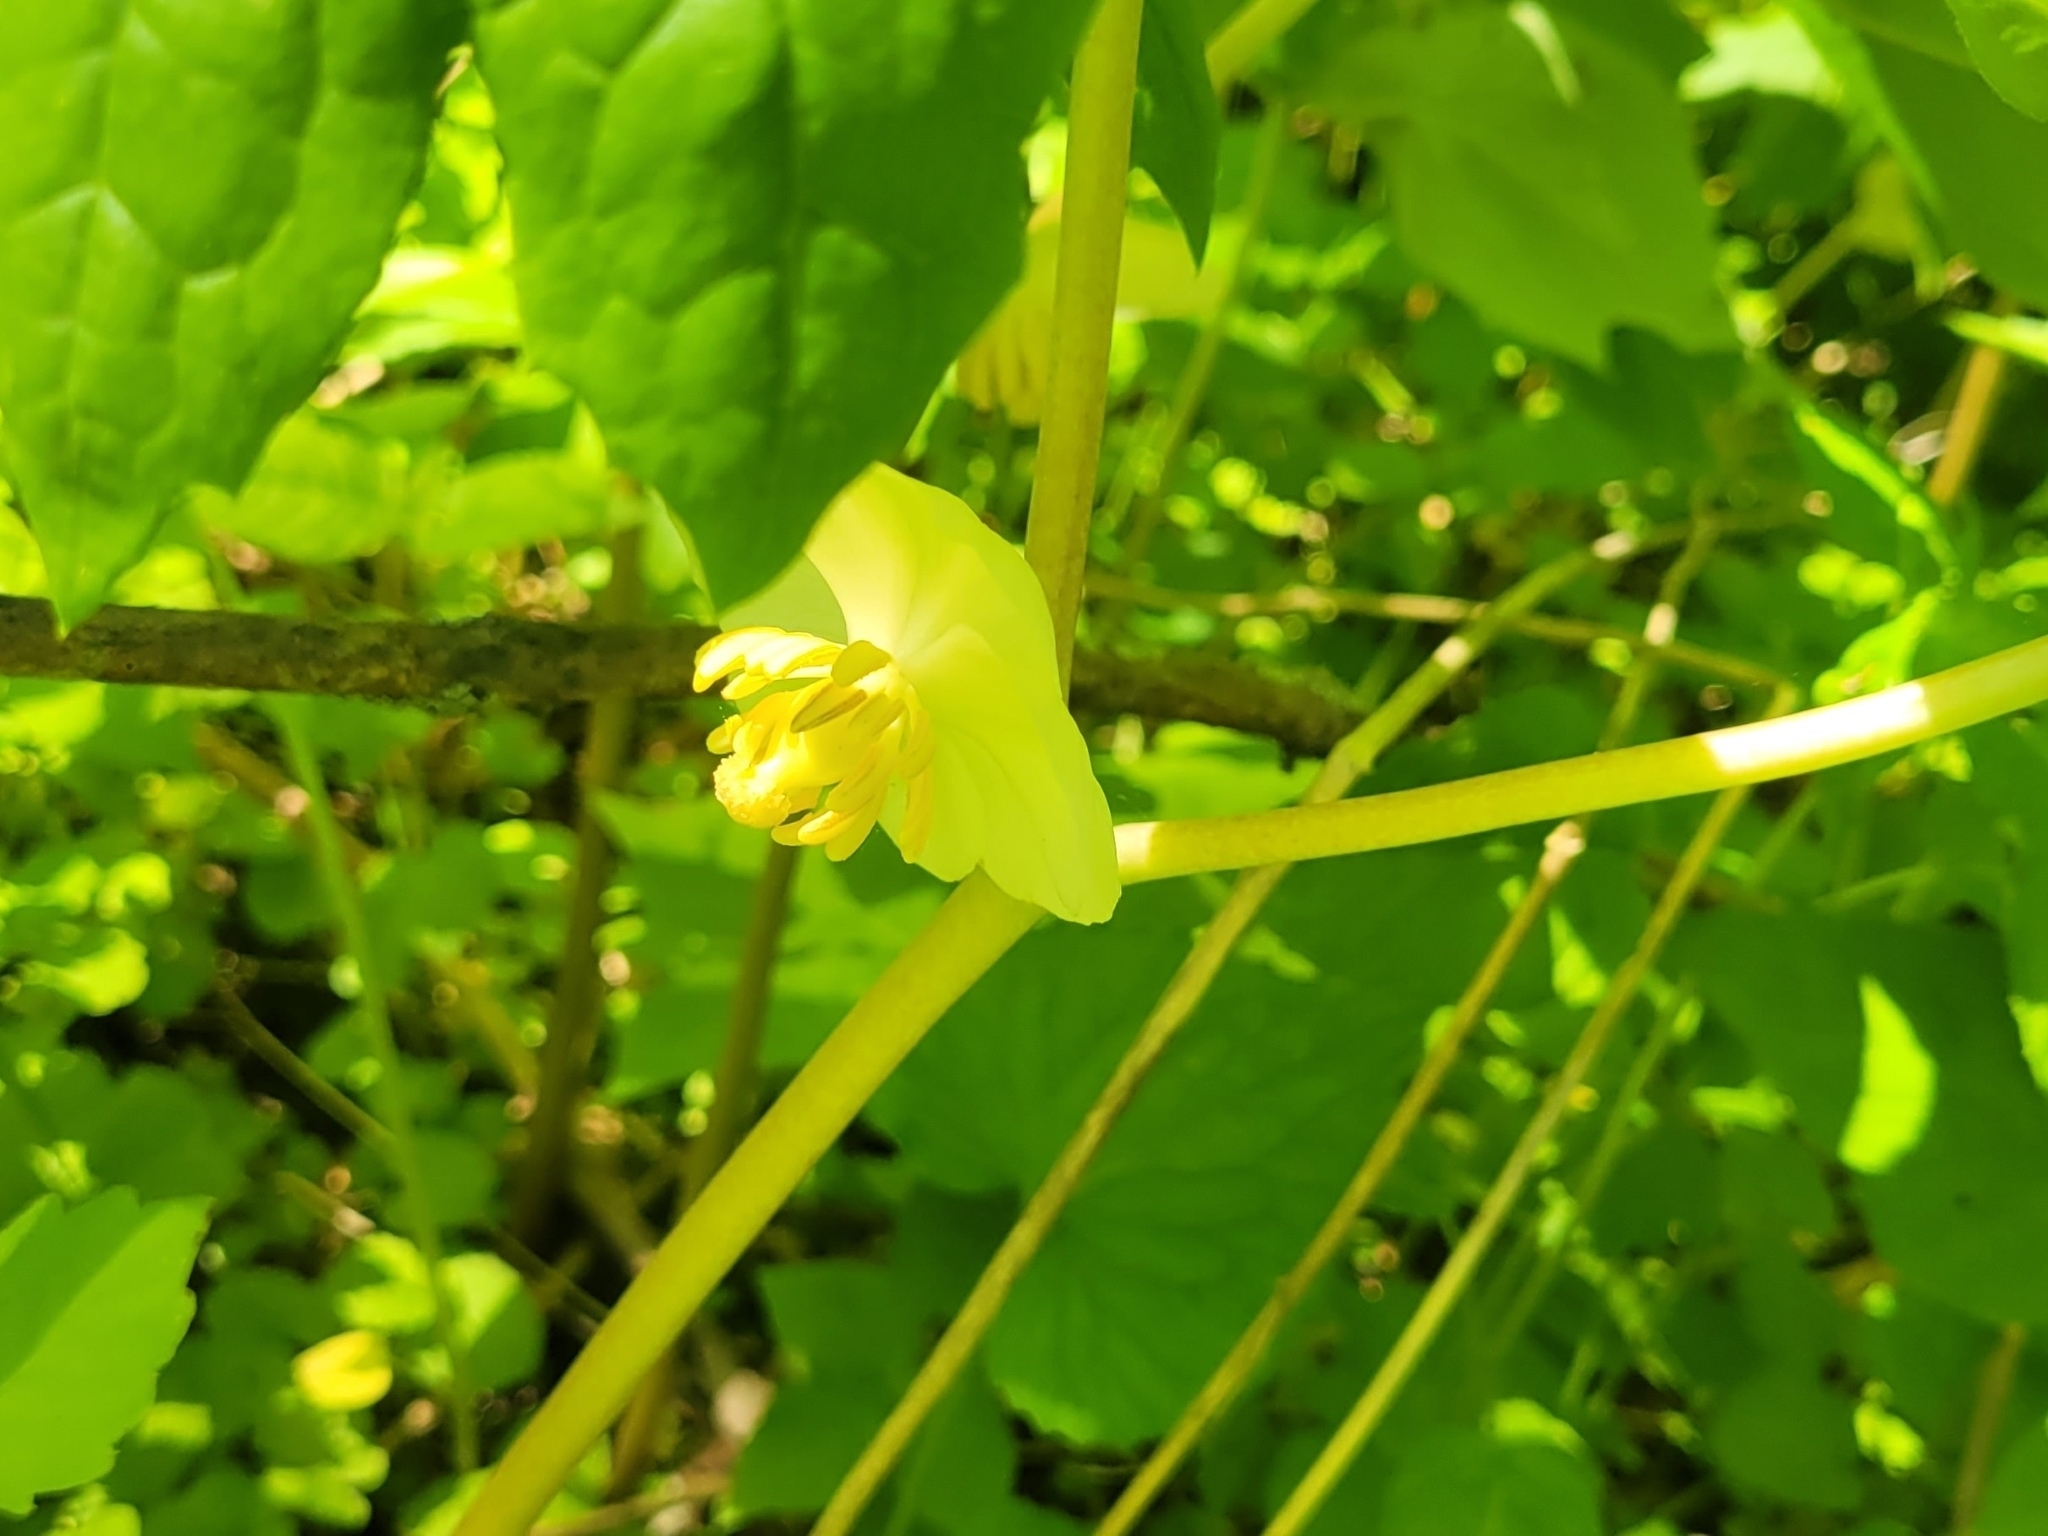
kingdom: Plantae
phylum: Tracheophyta
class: Magnoliopsida
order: Ranunculales
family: Berberidaceae
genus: Podophyllum
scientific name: Podophyllum peltatum
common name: Wild mandrake
